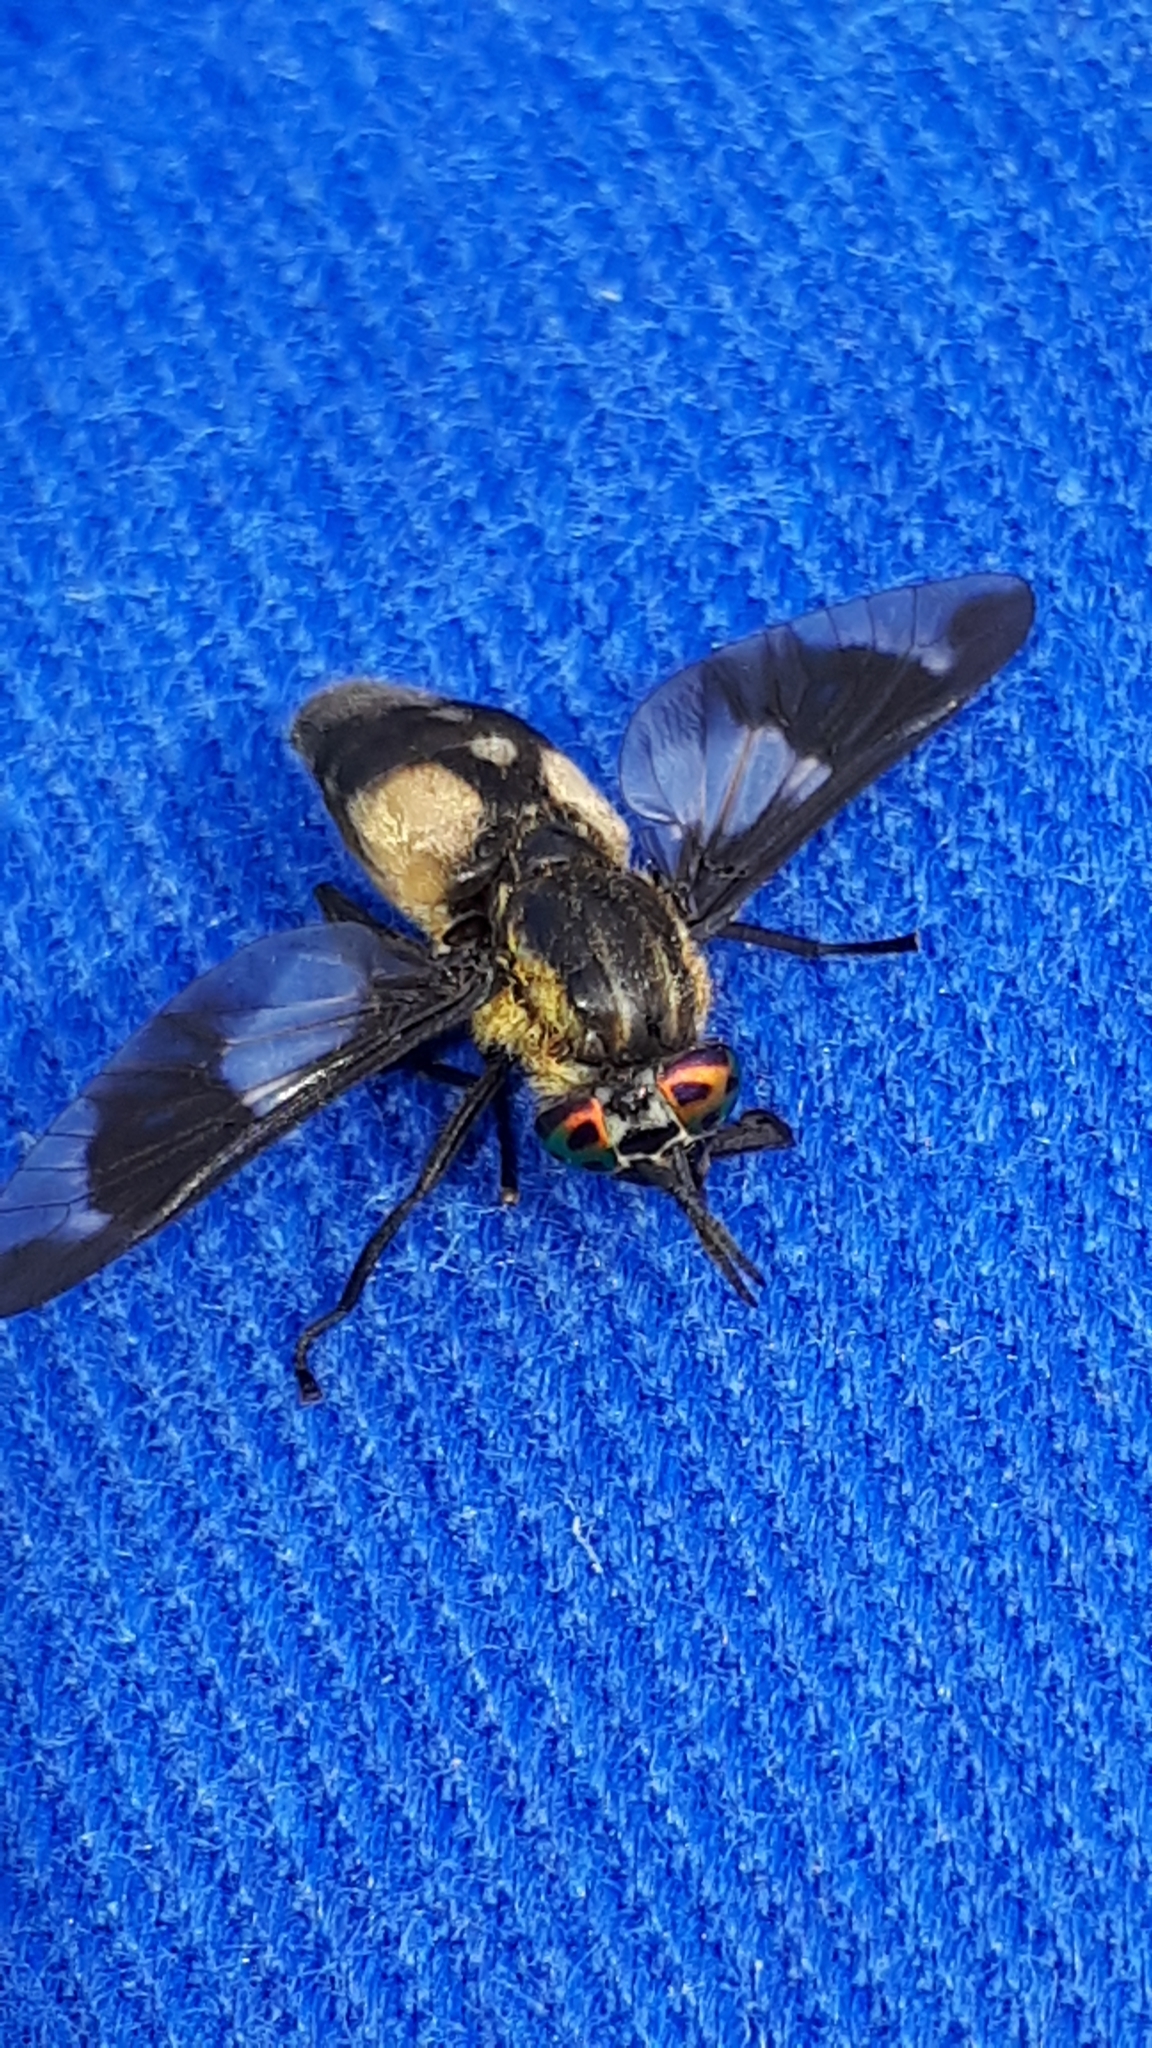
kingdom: Animalia
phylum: Arthropoda
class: Insecta
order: Diptera
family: Tabanidae
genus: Chrysops
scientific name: Chrysops caecutiens
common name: Splayed deerfly
